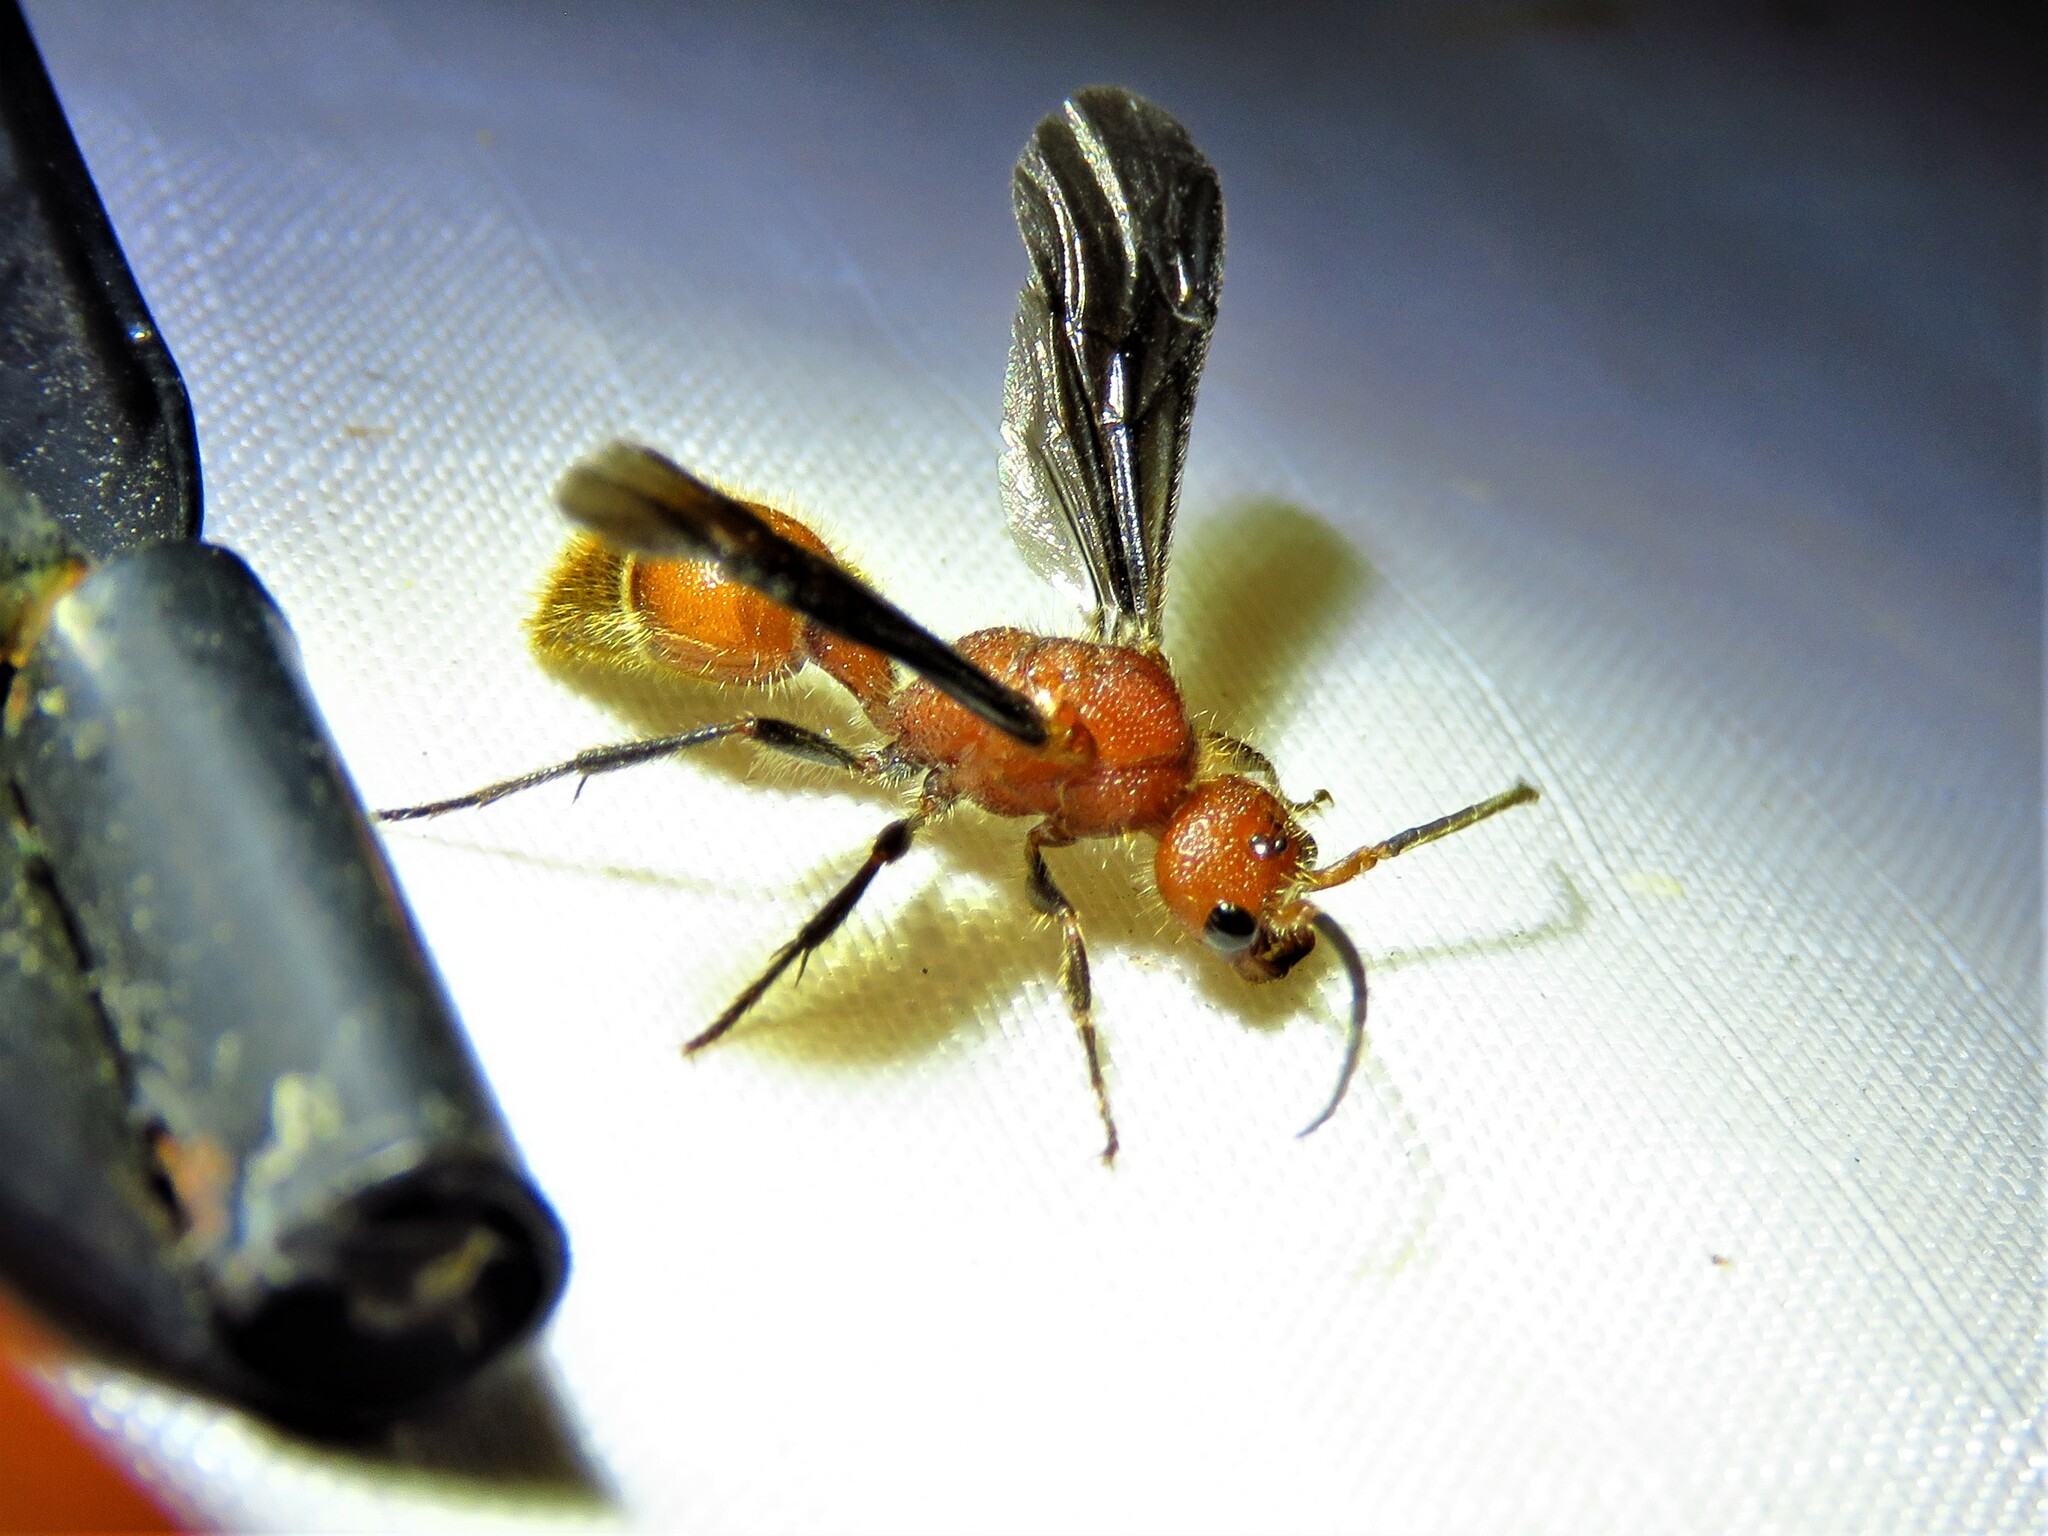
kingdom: Animalia
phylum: Arthropoda
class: Insecta
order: Hymenoptera
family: Mutillidae
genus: Sphaeropthalma
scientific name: Sphaeropthalma
